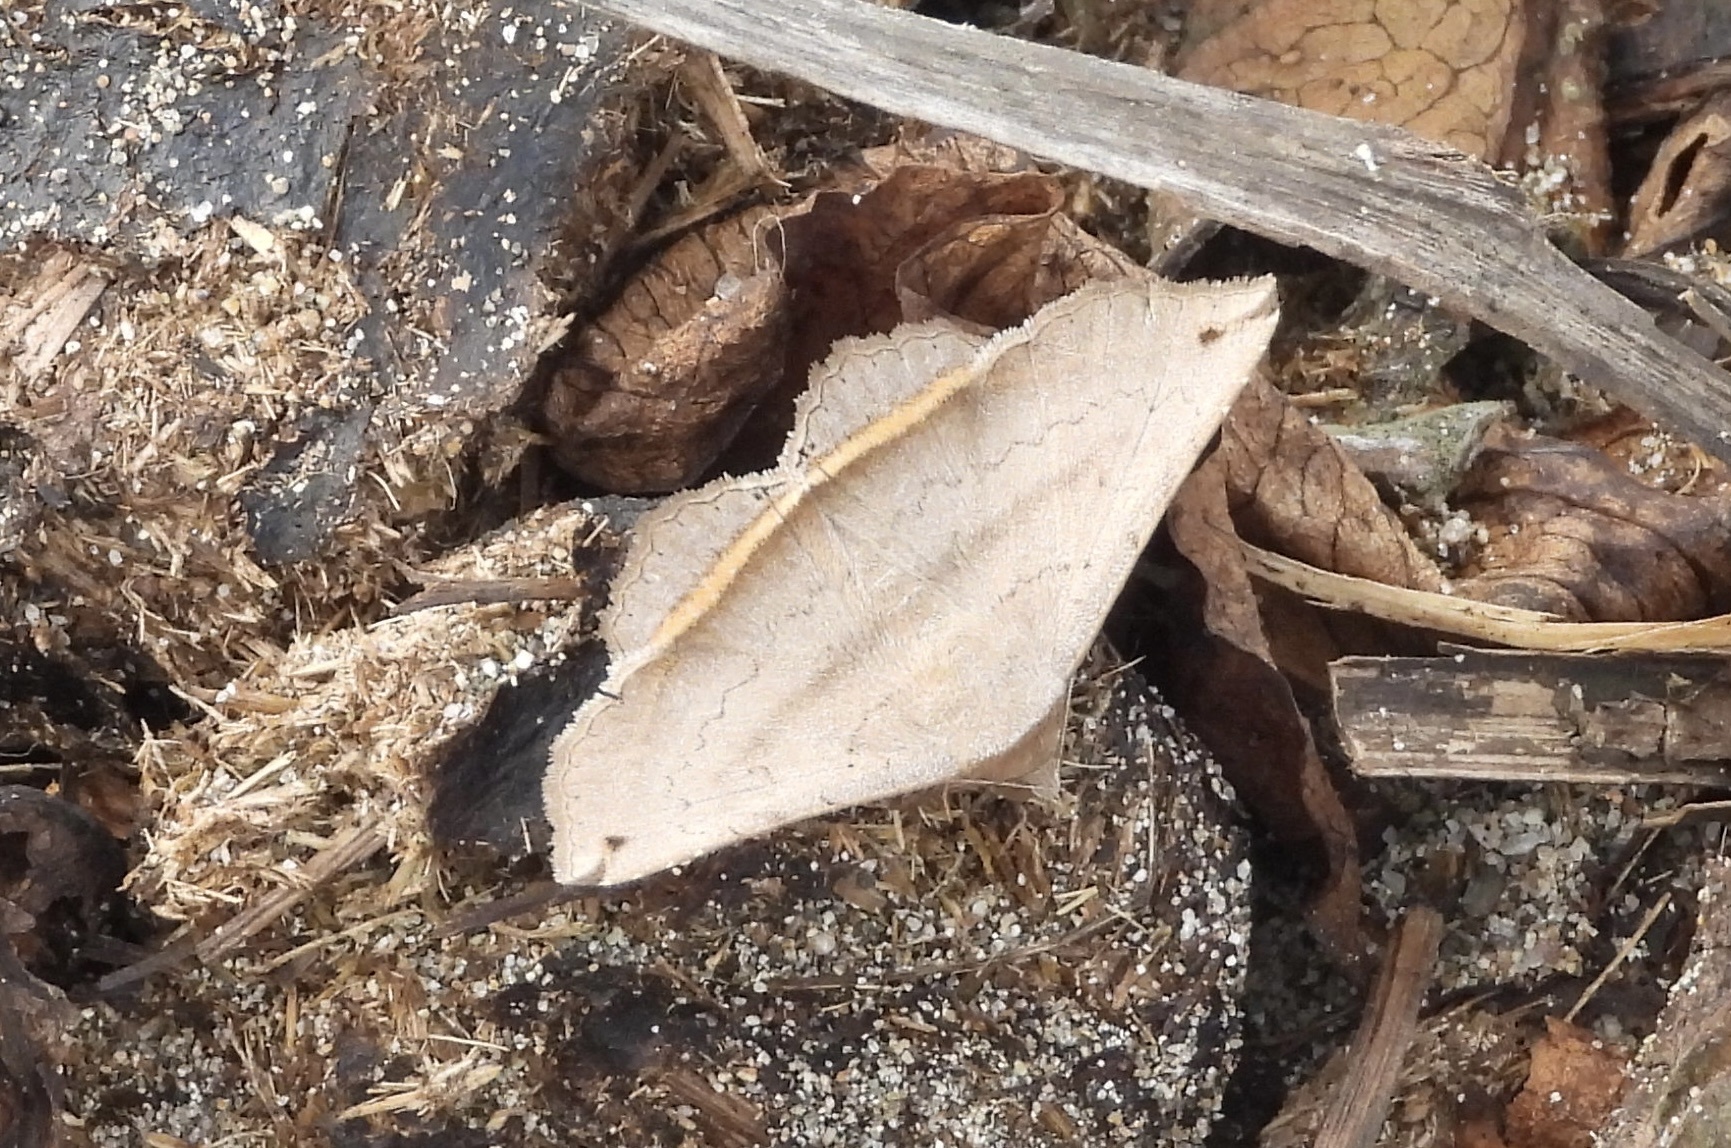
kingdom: Animalia
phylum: Arthropoda
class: Insecta
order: Lepidoptera
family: Erebidae
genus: Lesmone
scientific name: Lesmone formularis
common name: Lesmone moth
